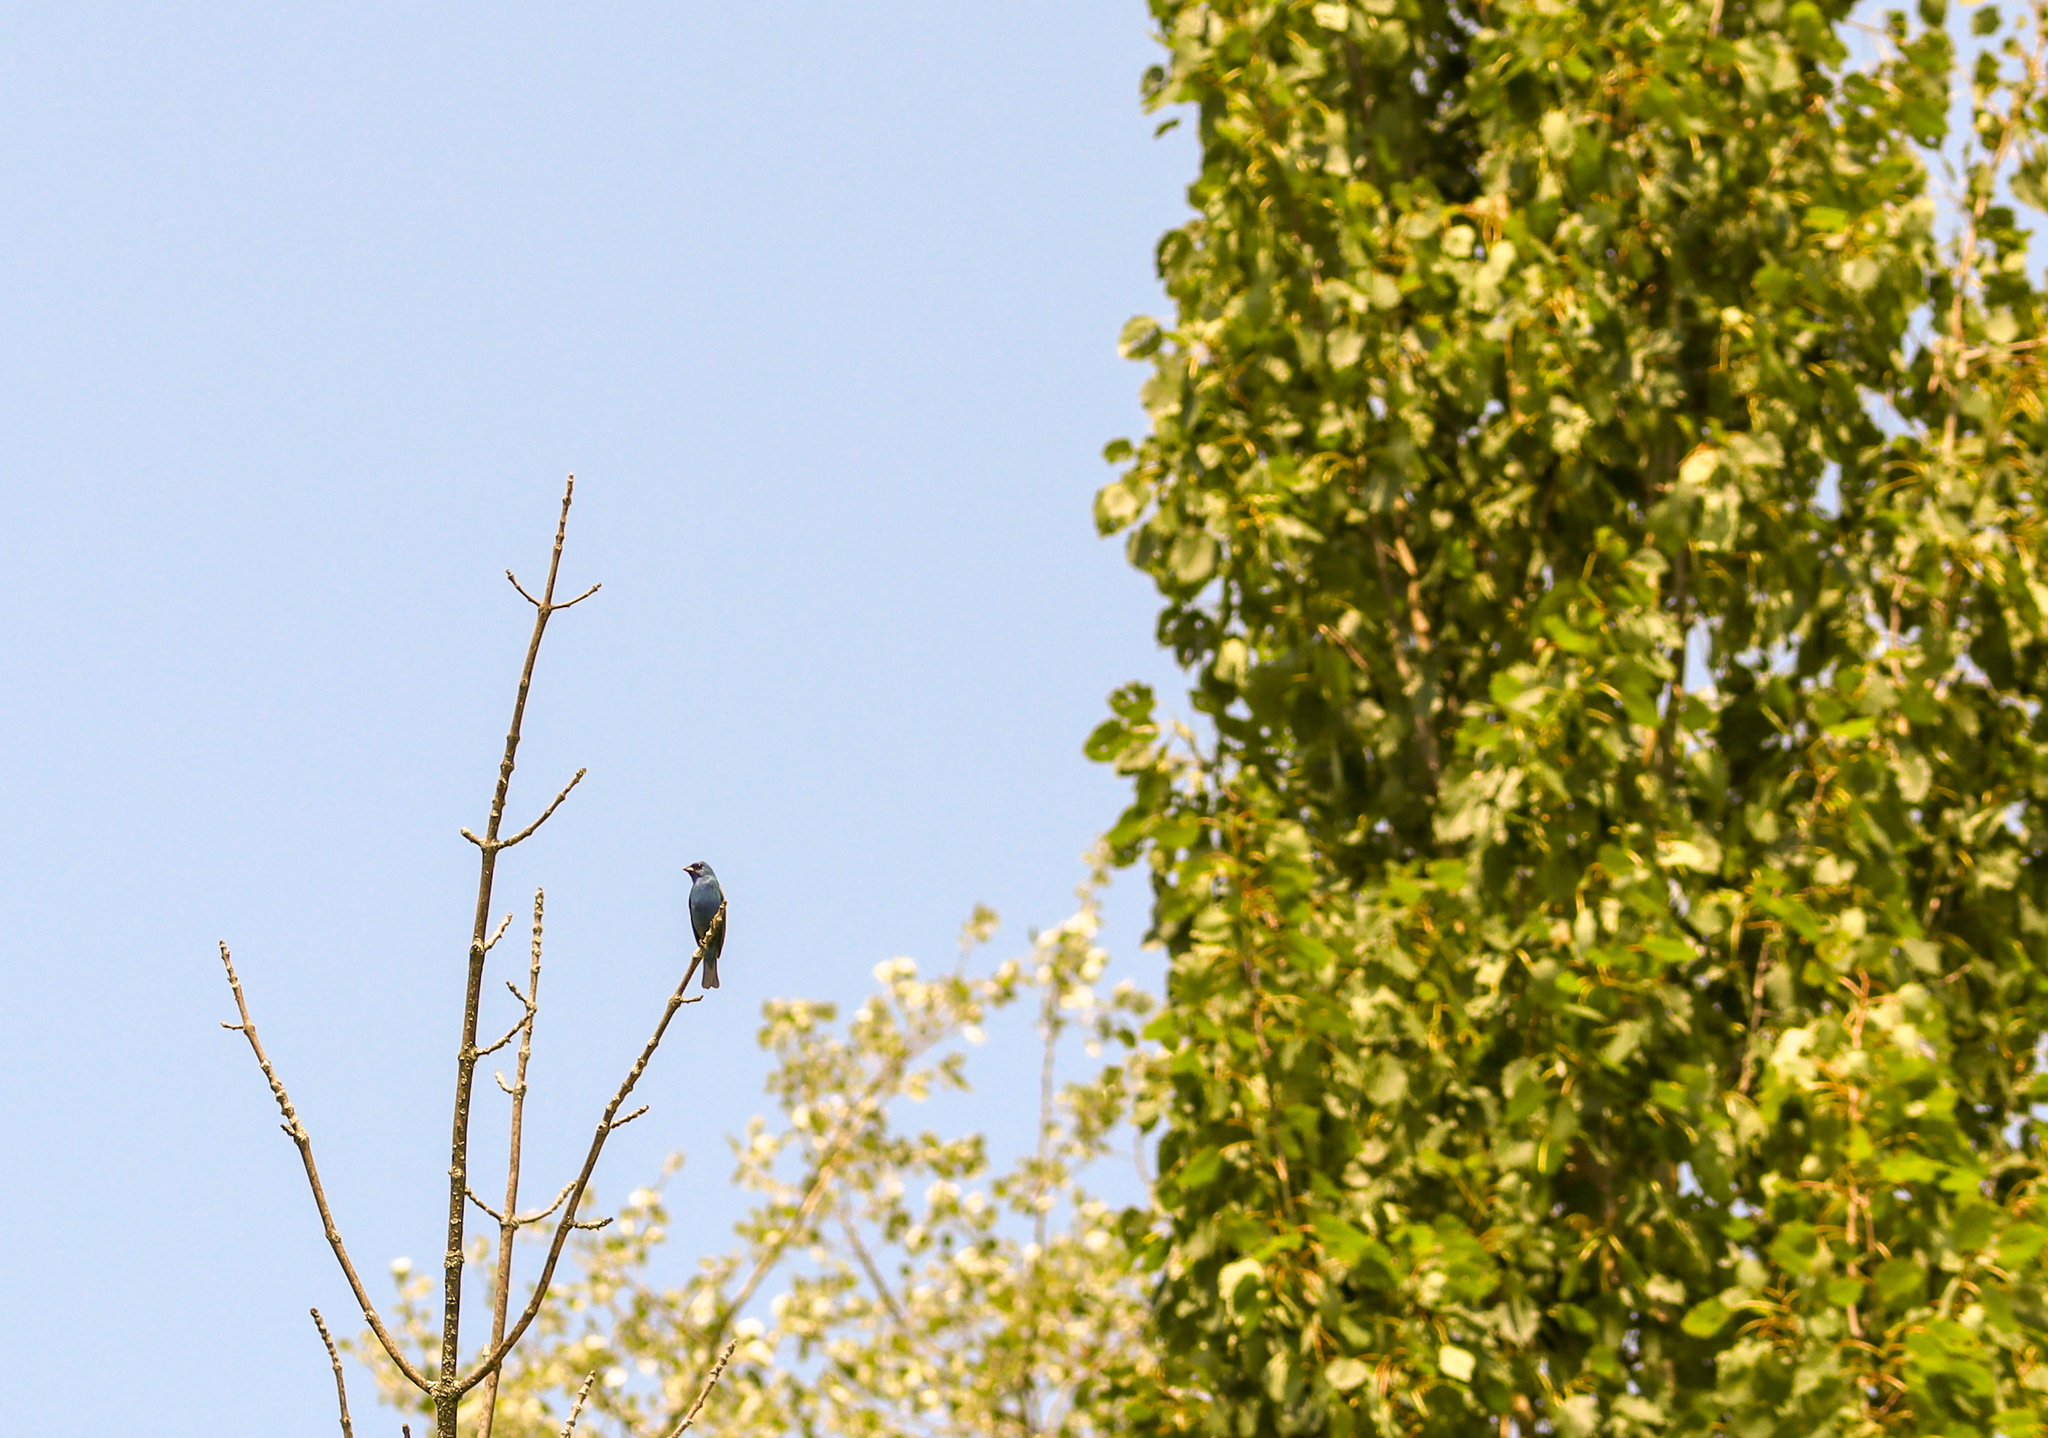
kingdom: Animalia
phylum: Chordata
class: Aves
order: Passeriformes
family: Cardinalidae
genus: Passerina
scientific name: Passerina cyanea
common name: Indigo bunting
